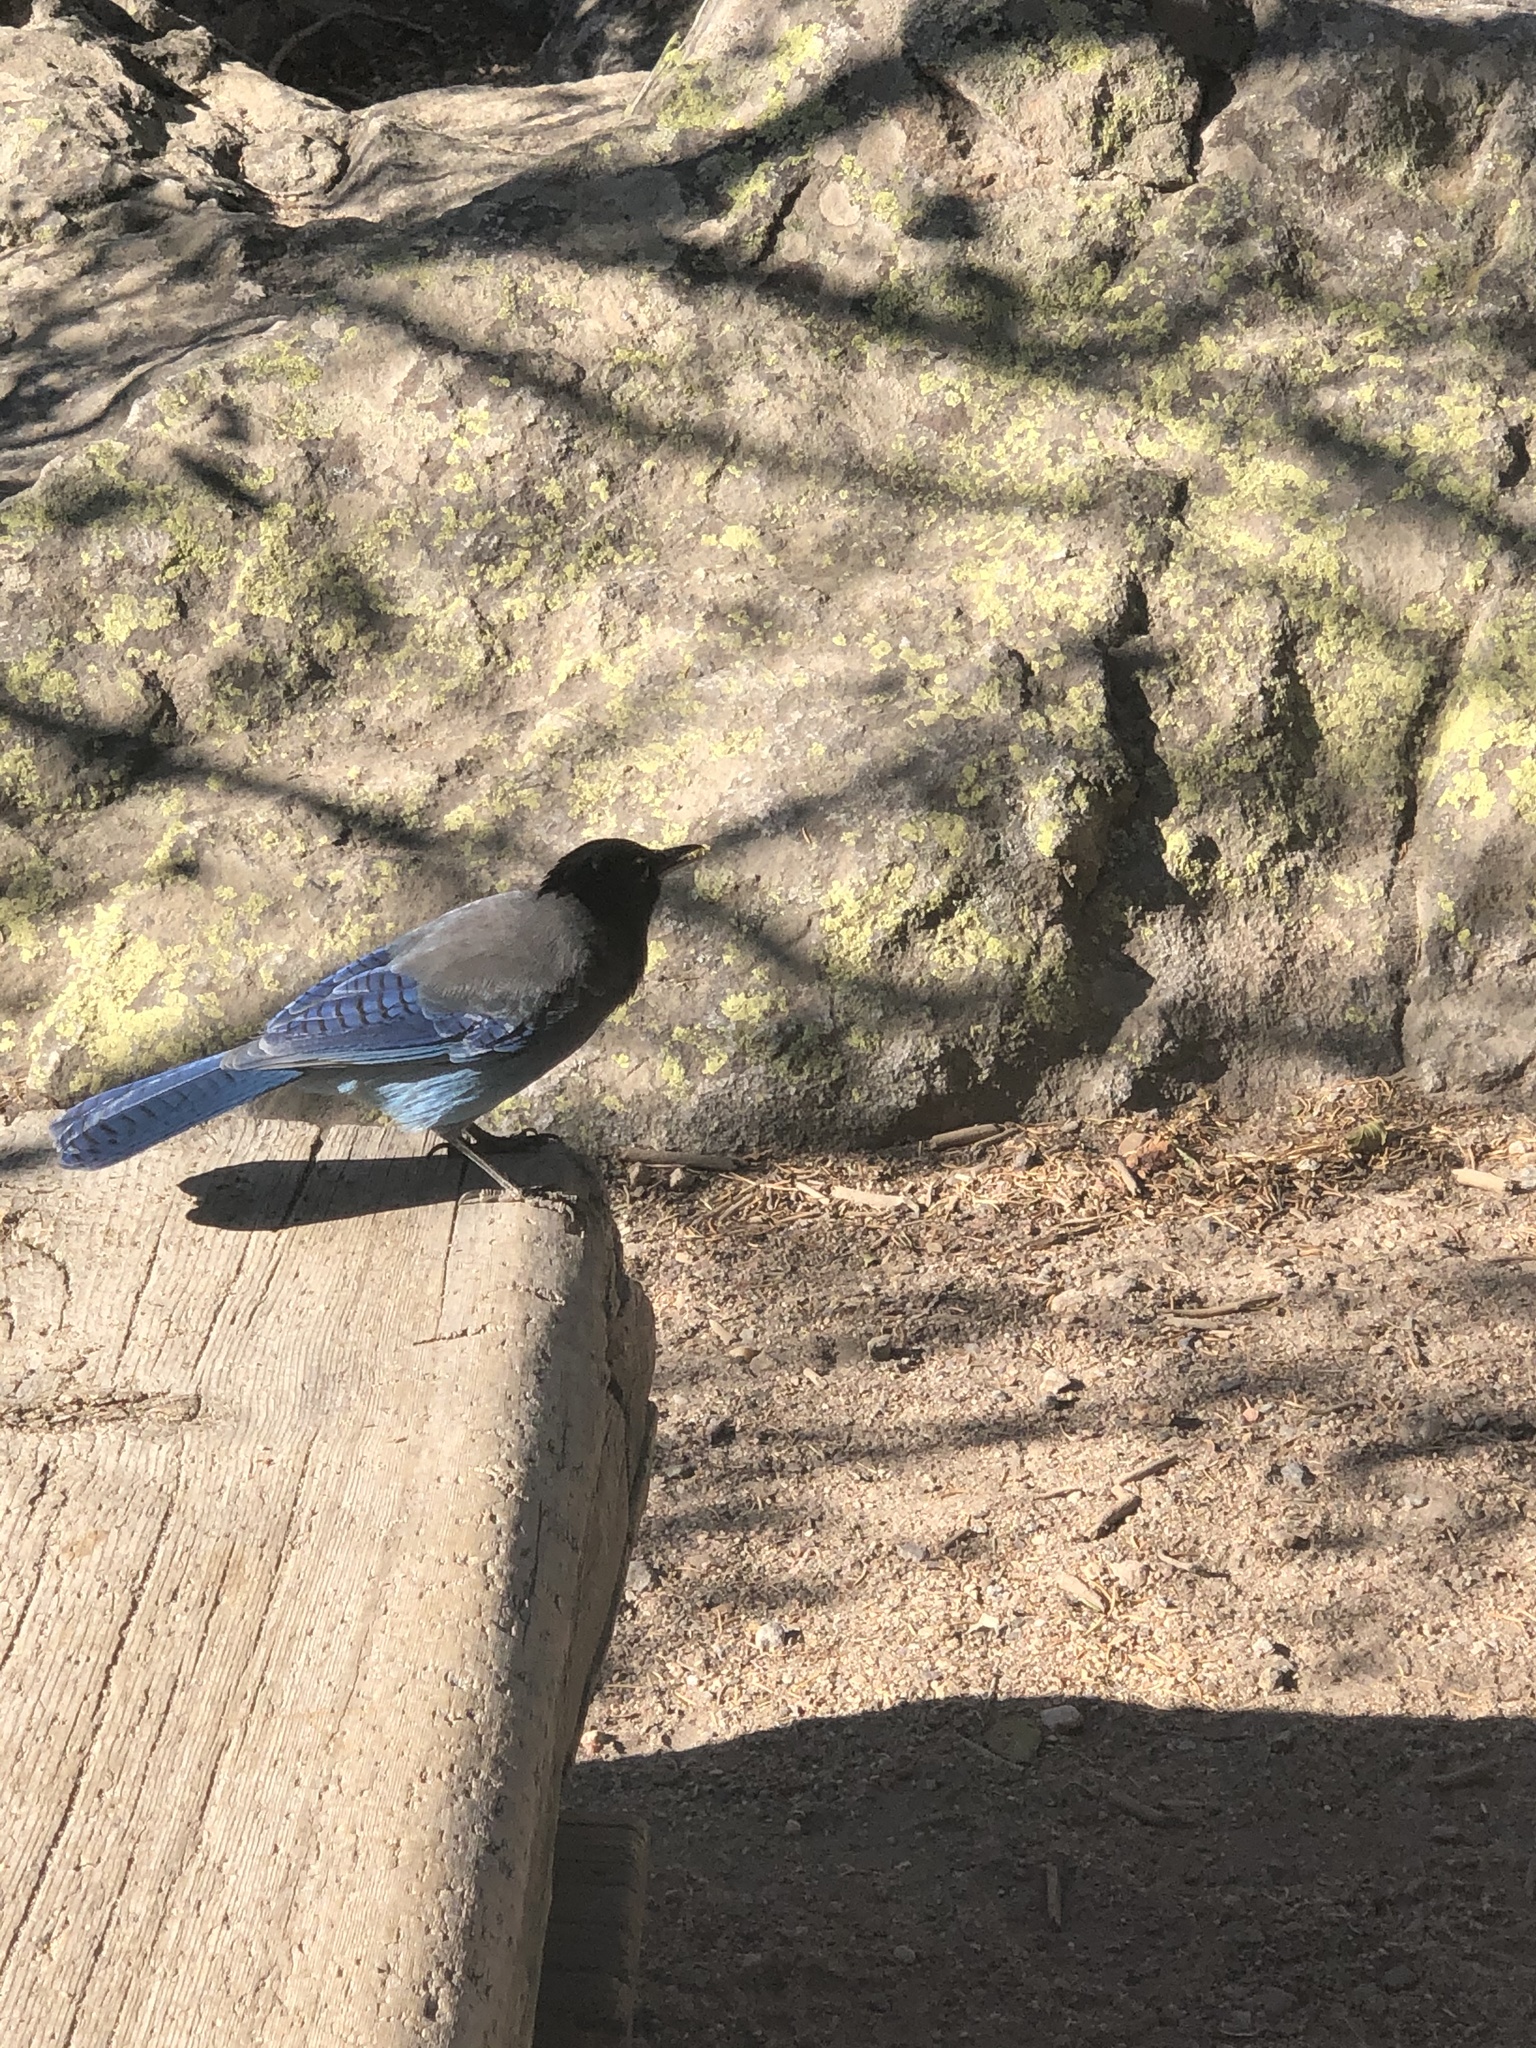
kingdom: Animalia
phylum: Chordata
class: Aves
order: Passeriformes
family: Corvidae
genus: Cyanocitta
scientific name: Cyanocitta stelleri
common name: Steller's jay
